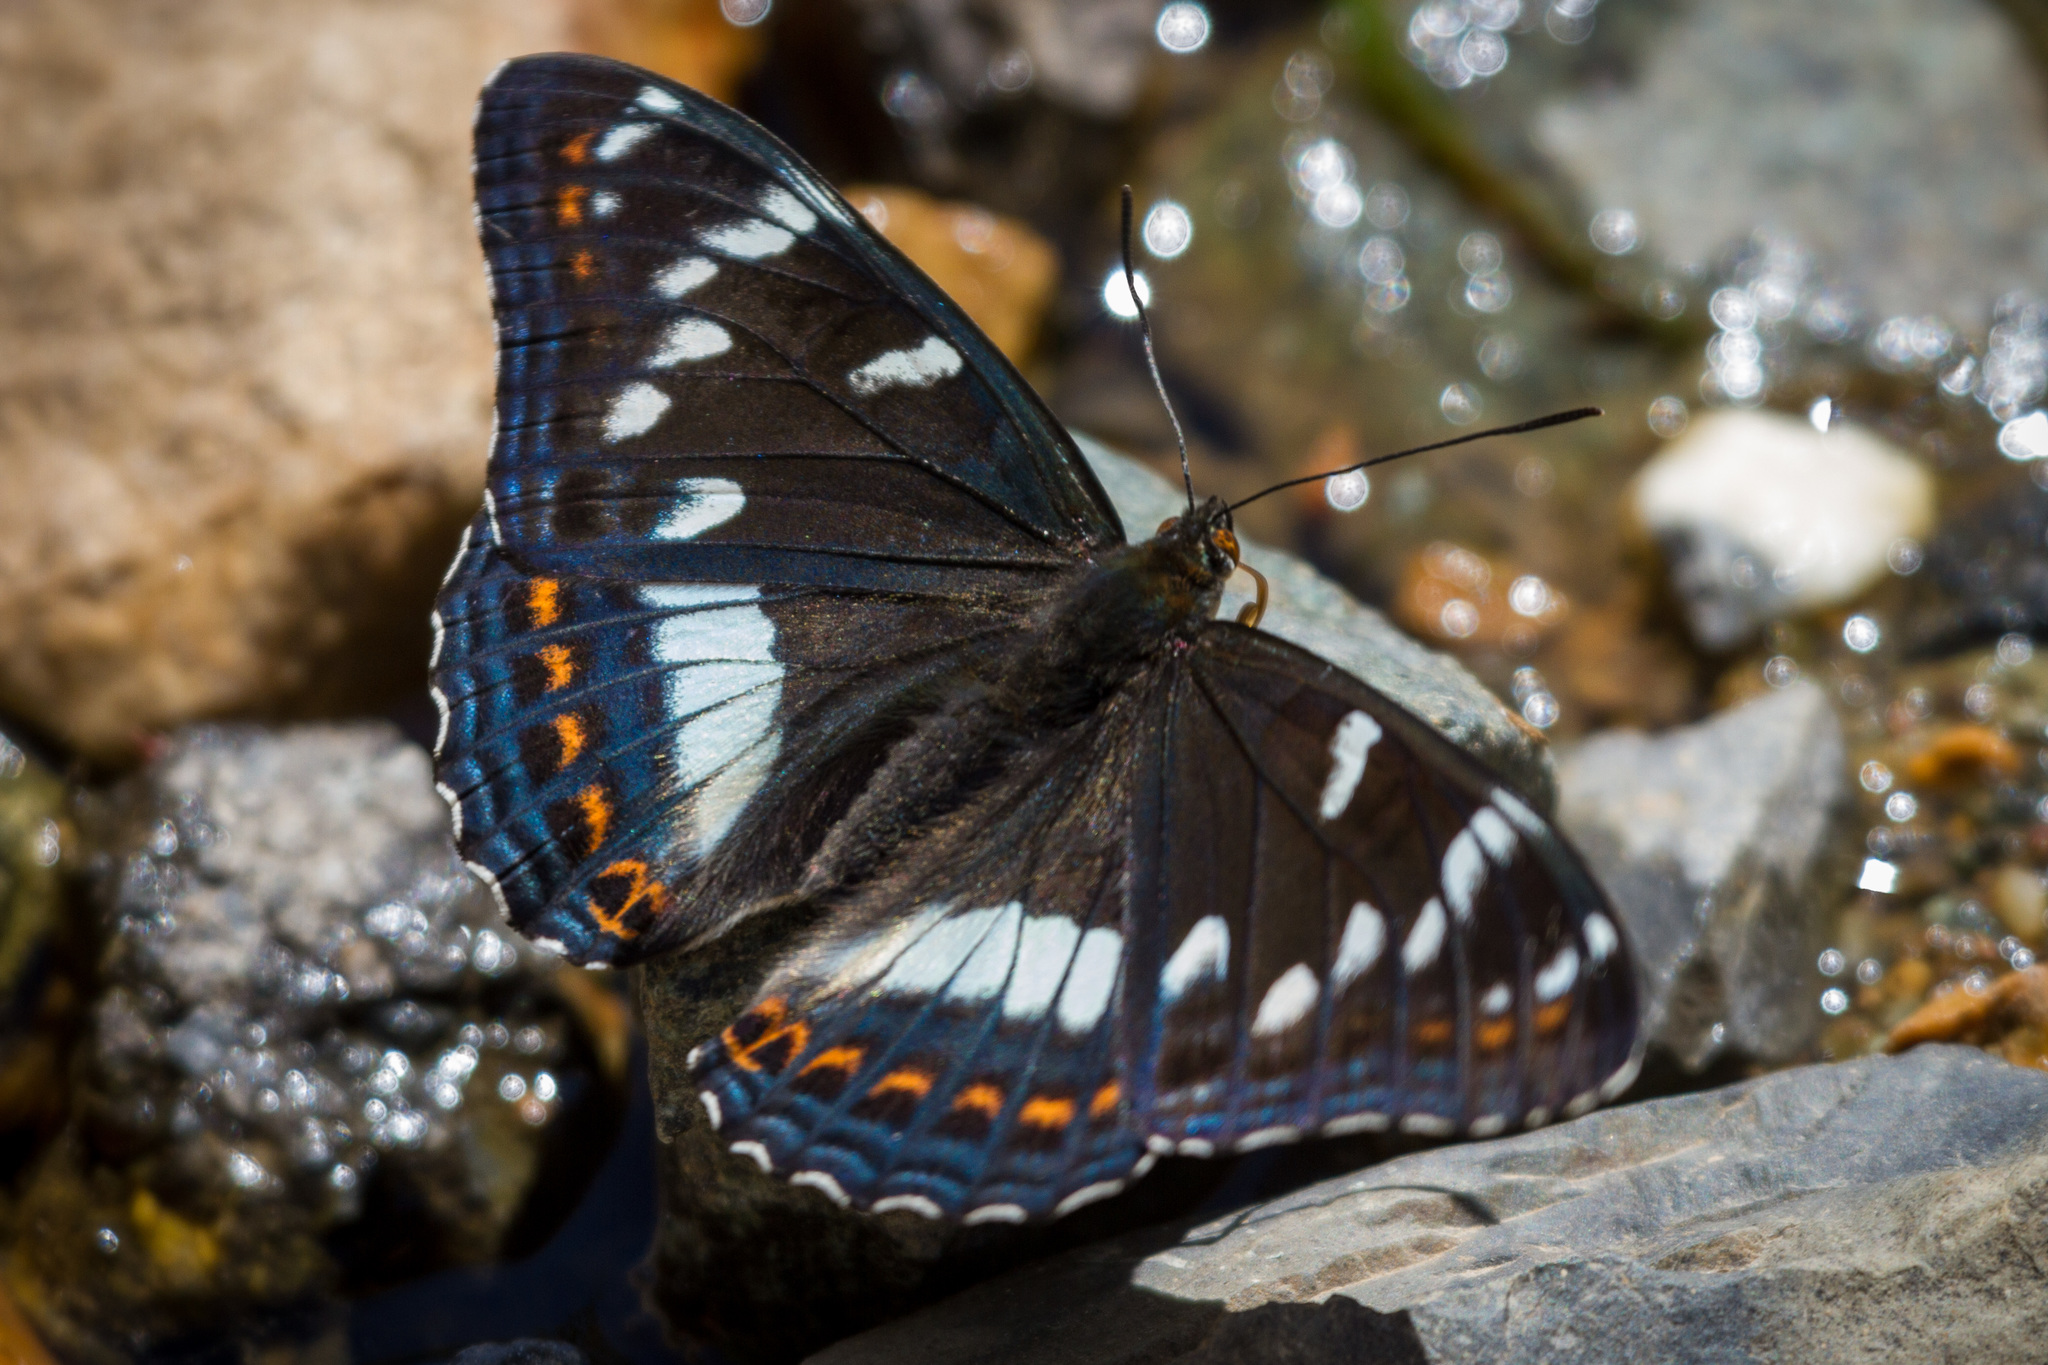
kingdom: Animalia
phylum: Arthropoda
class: Insecta
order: Lepidoptera
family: Nymphalidae
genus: Limenitis
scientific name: Limenitis populi
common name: Poplar admiral
